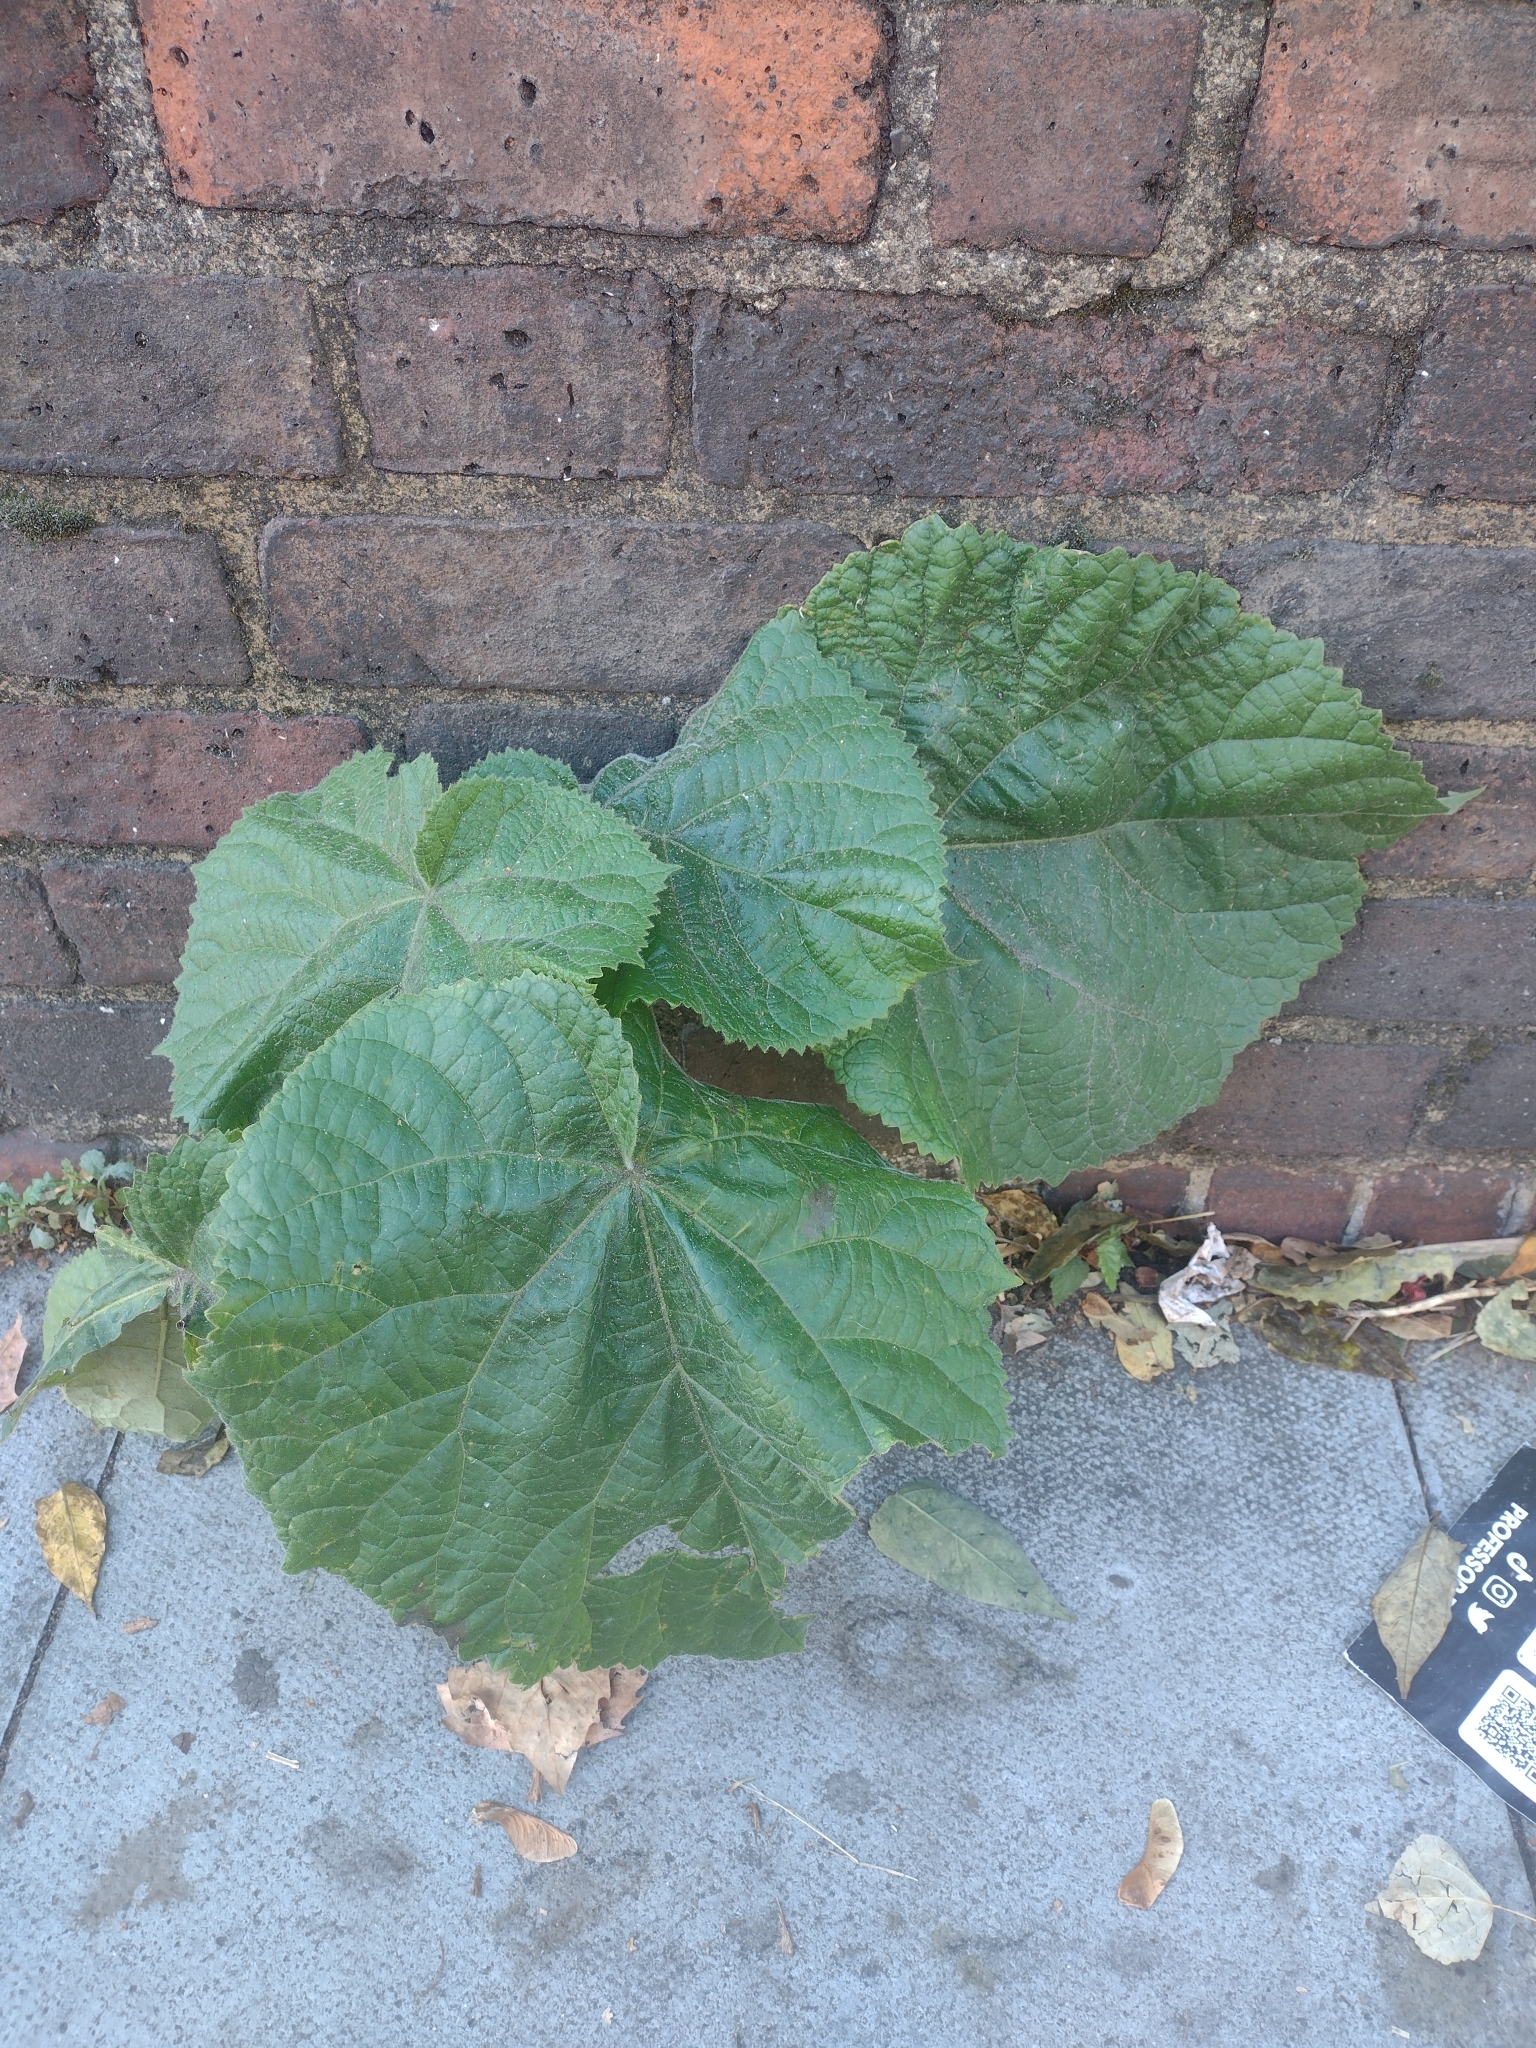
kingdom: Plantae
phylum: Tracheophyta
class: Magnoliopsida
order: Lamiales
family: Paulowniaceae
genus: Paulownia
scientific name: Paulownia tomentosa
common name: Foxglove-tree
